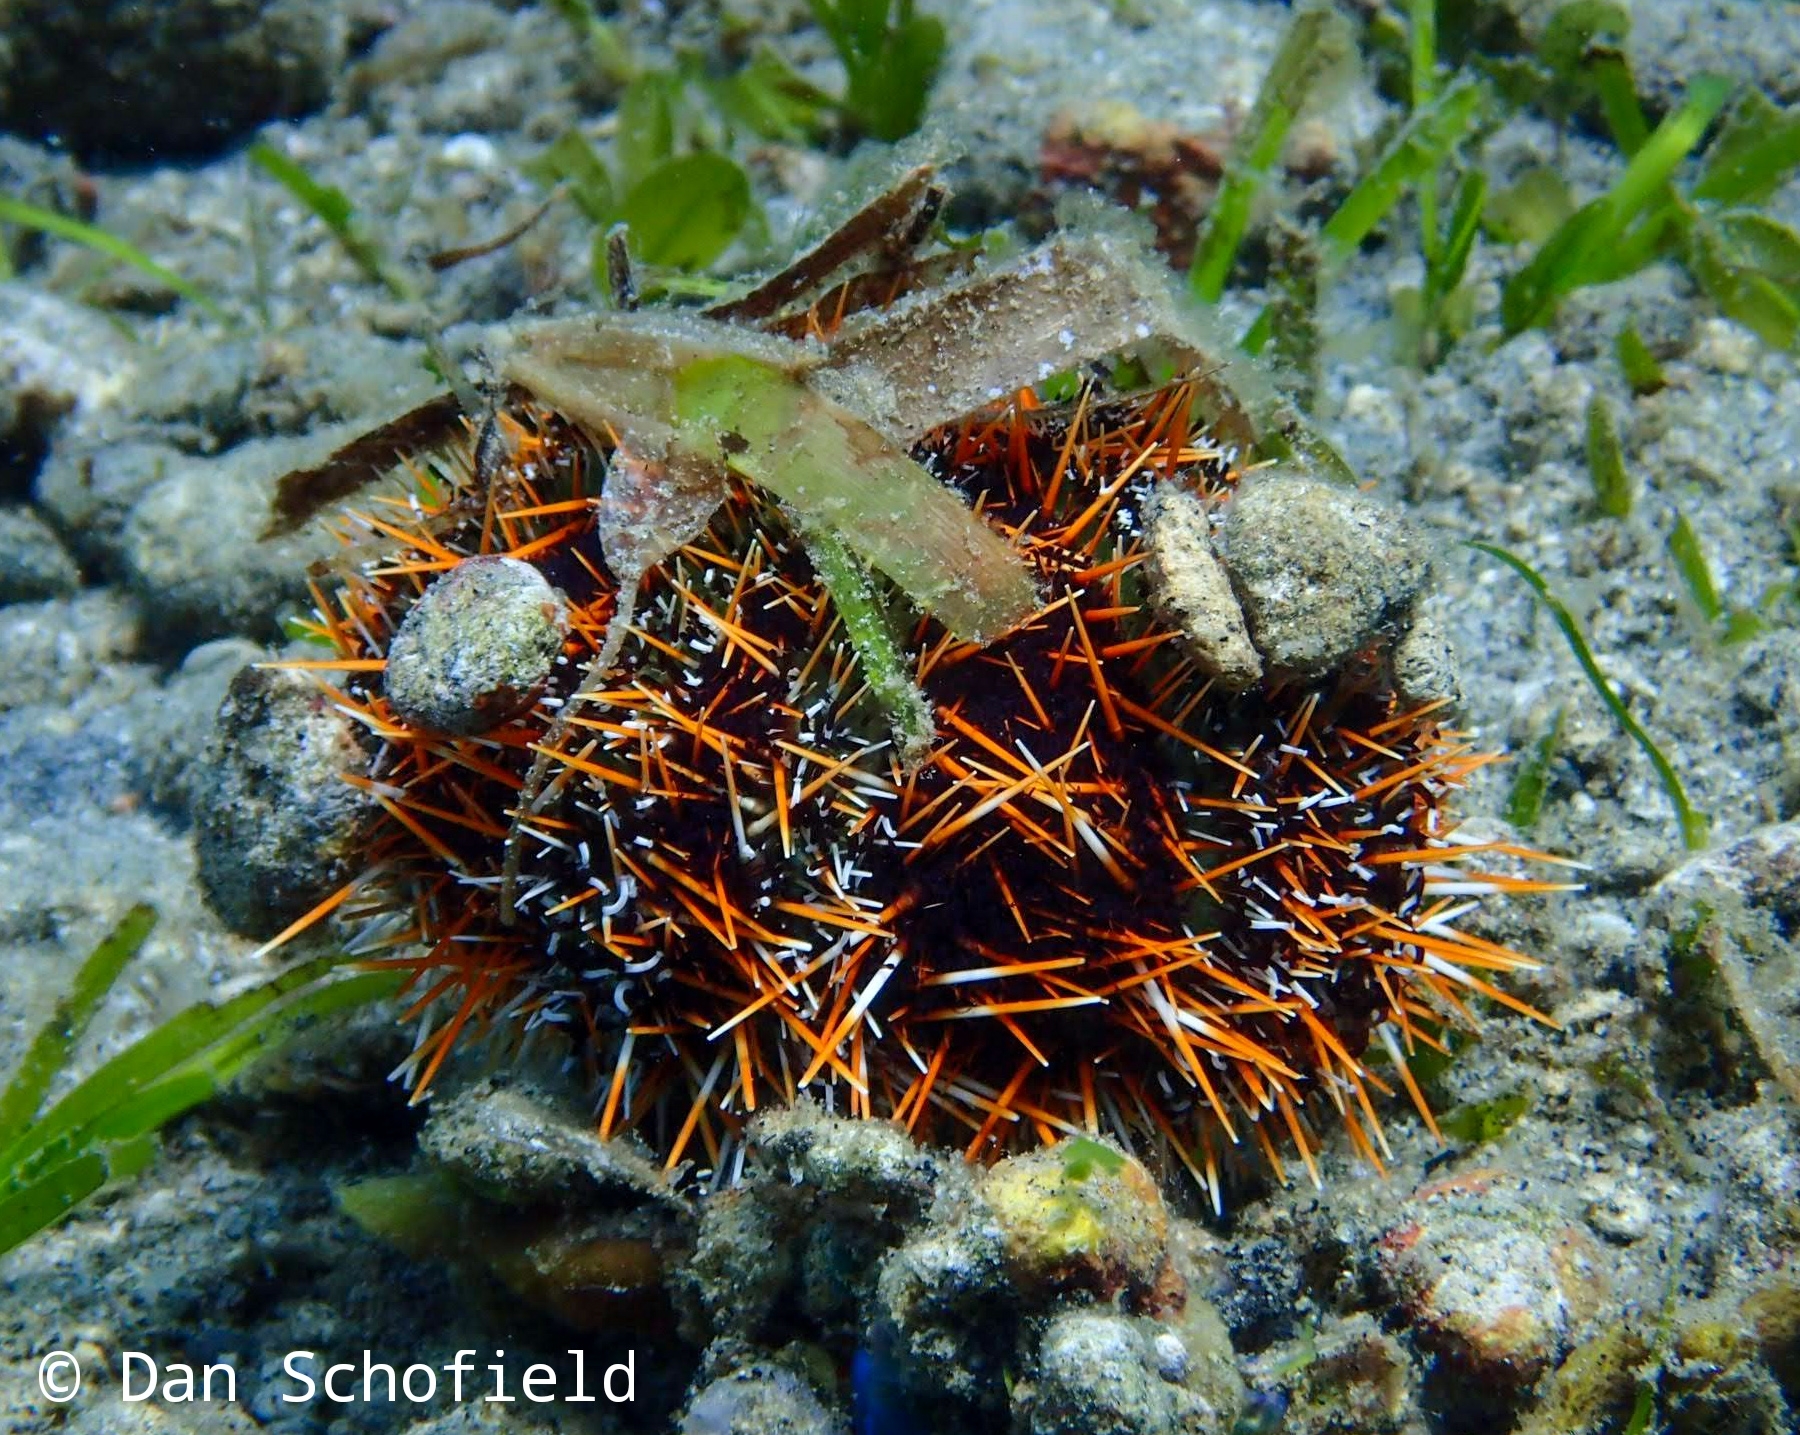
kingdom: Animalia
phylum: Echinodermata
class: Echinoidea
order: Camarodonta
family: Toxopneustidae
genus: Tripneustes
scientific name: Tripneustes gratilla
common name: Bischofsmützenseeigel
